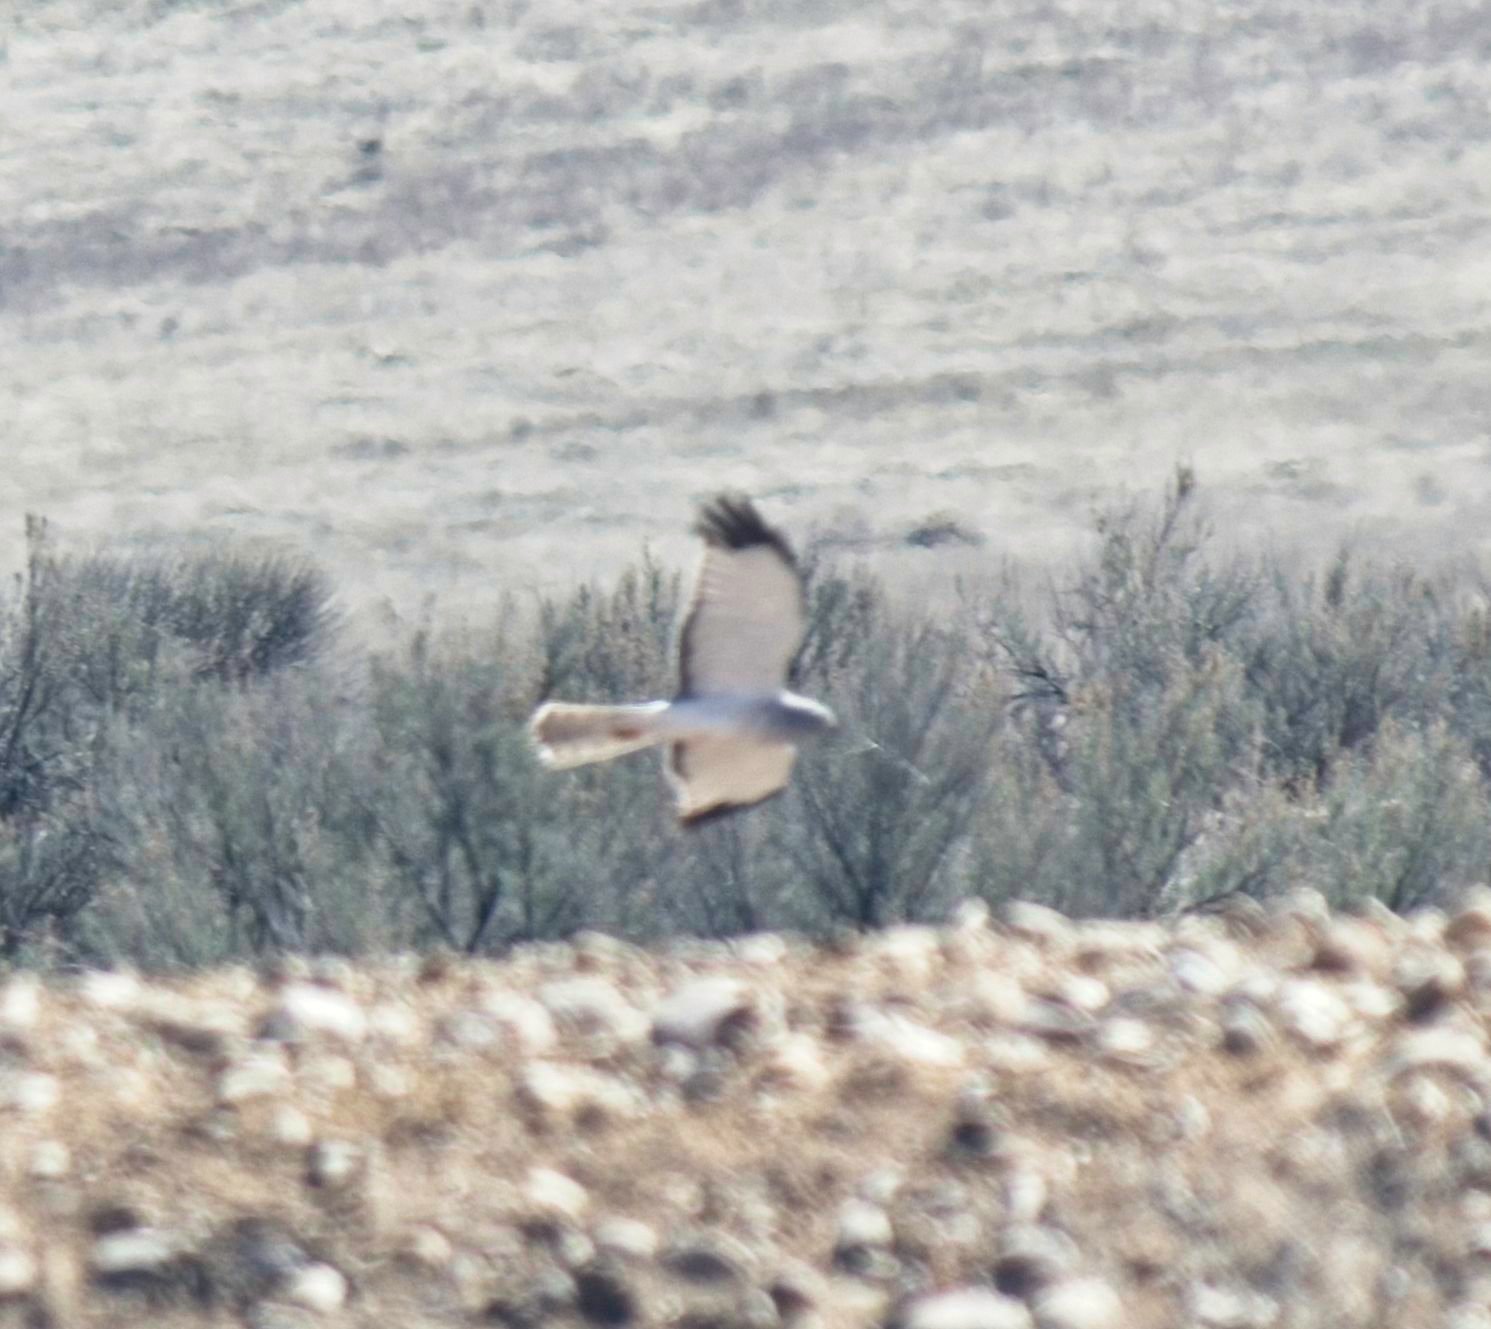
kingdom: Animalia
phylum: Chordata
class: Aves
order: Accipitriformes
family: Accipitridae
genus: Circus
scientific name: Circus cyaneus
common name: Hen harrier
